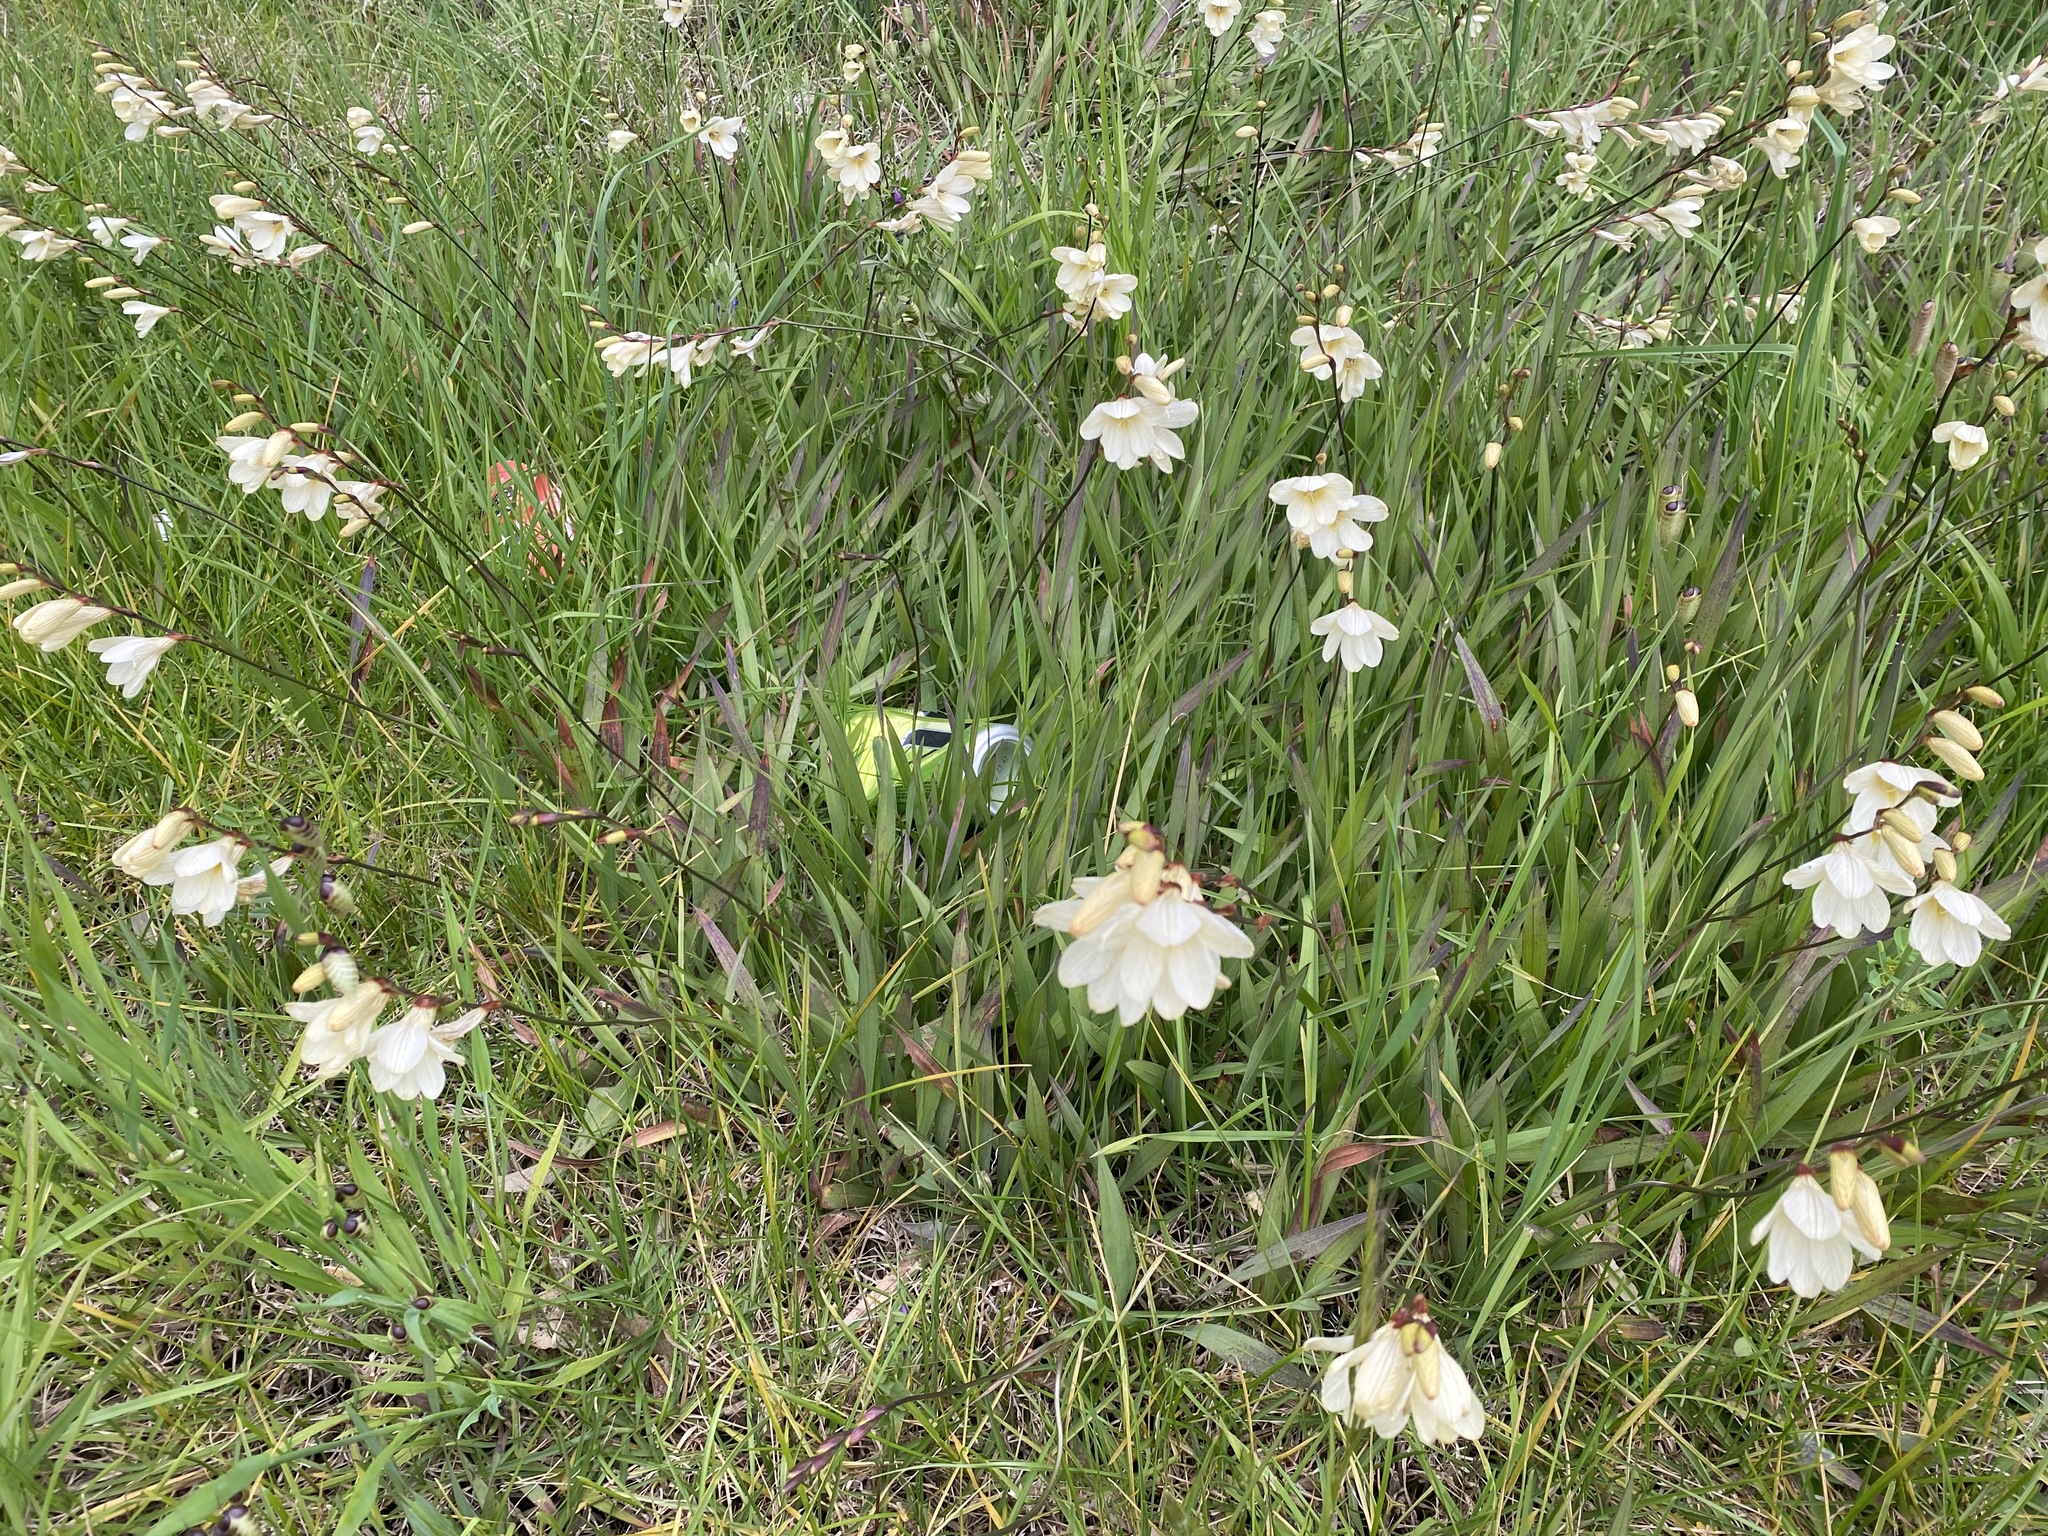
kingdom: Plantae
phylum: Tracheophyta
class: Liliopsida
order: Asparagales
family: Iridaceae
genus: Freesia
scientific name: Freesia leichtlinii
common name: Freesia
